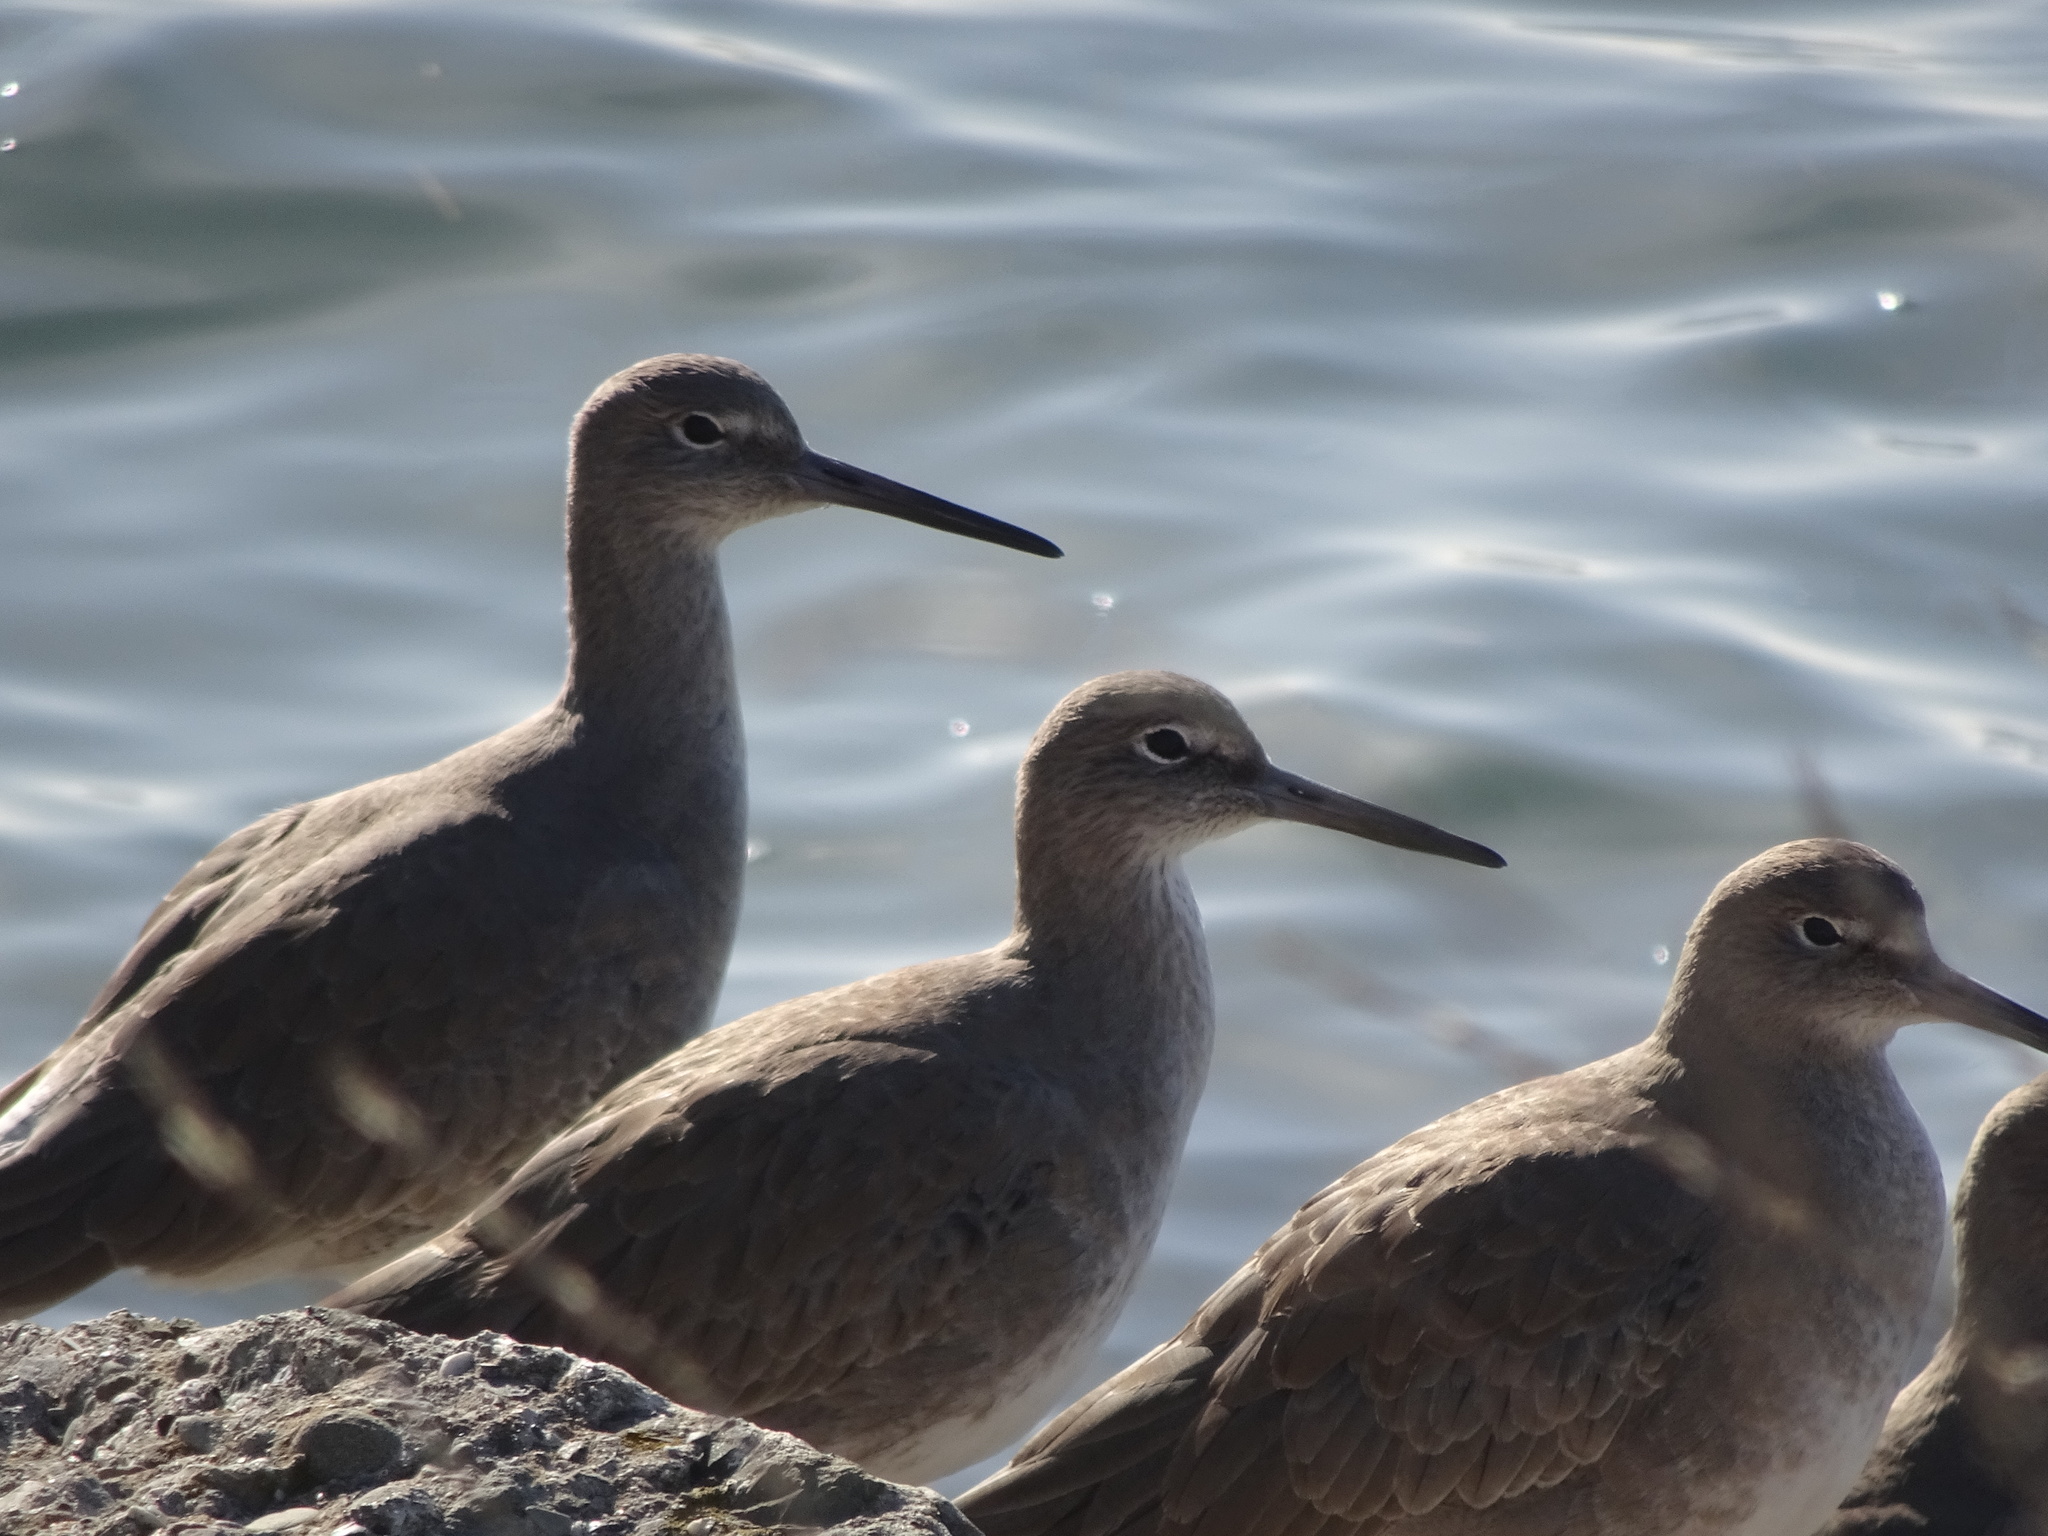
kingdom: Animalia
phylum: Chordata
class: Aves
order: Charadriiformes
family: Scolopacidae
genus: Tringa
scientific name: Tringa semipalmata
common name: Willet
